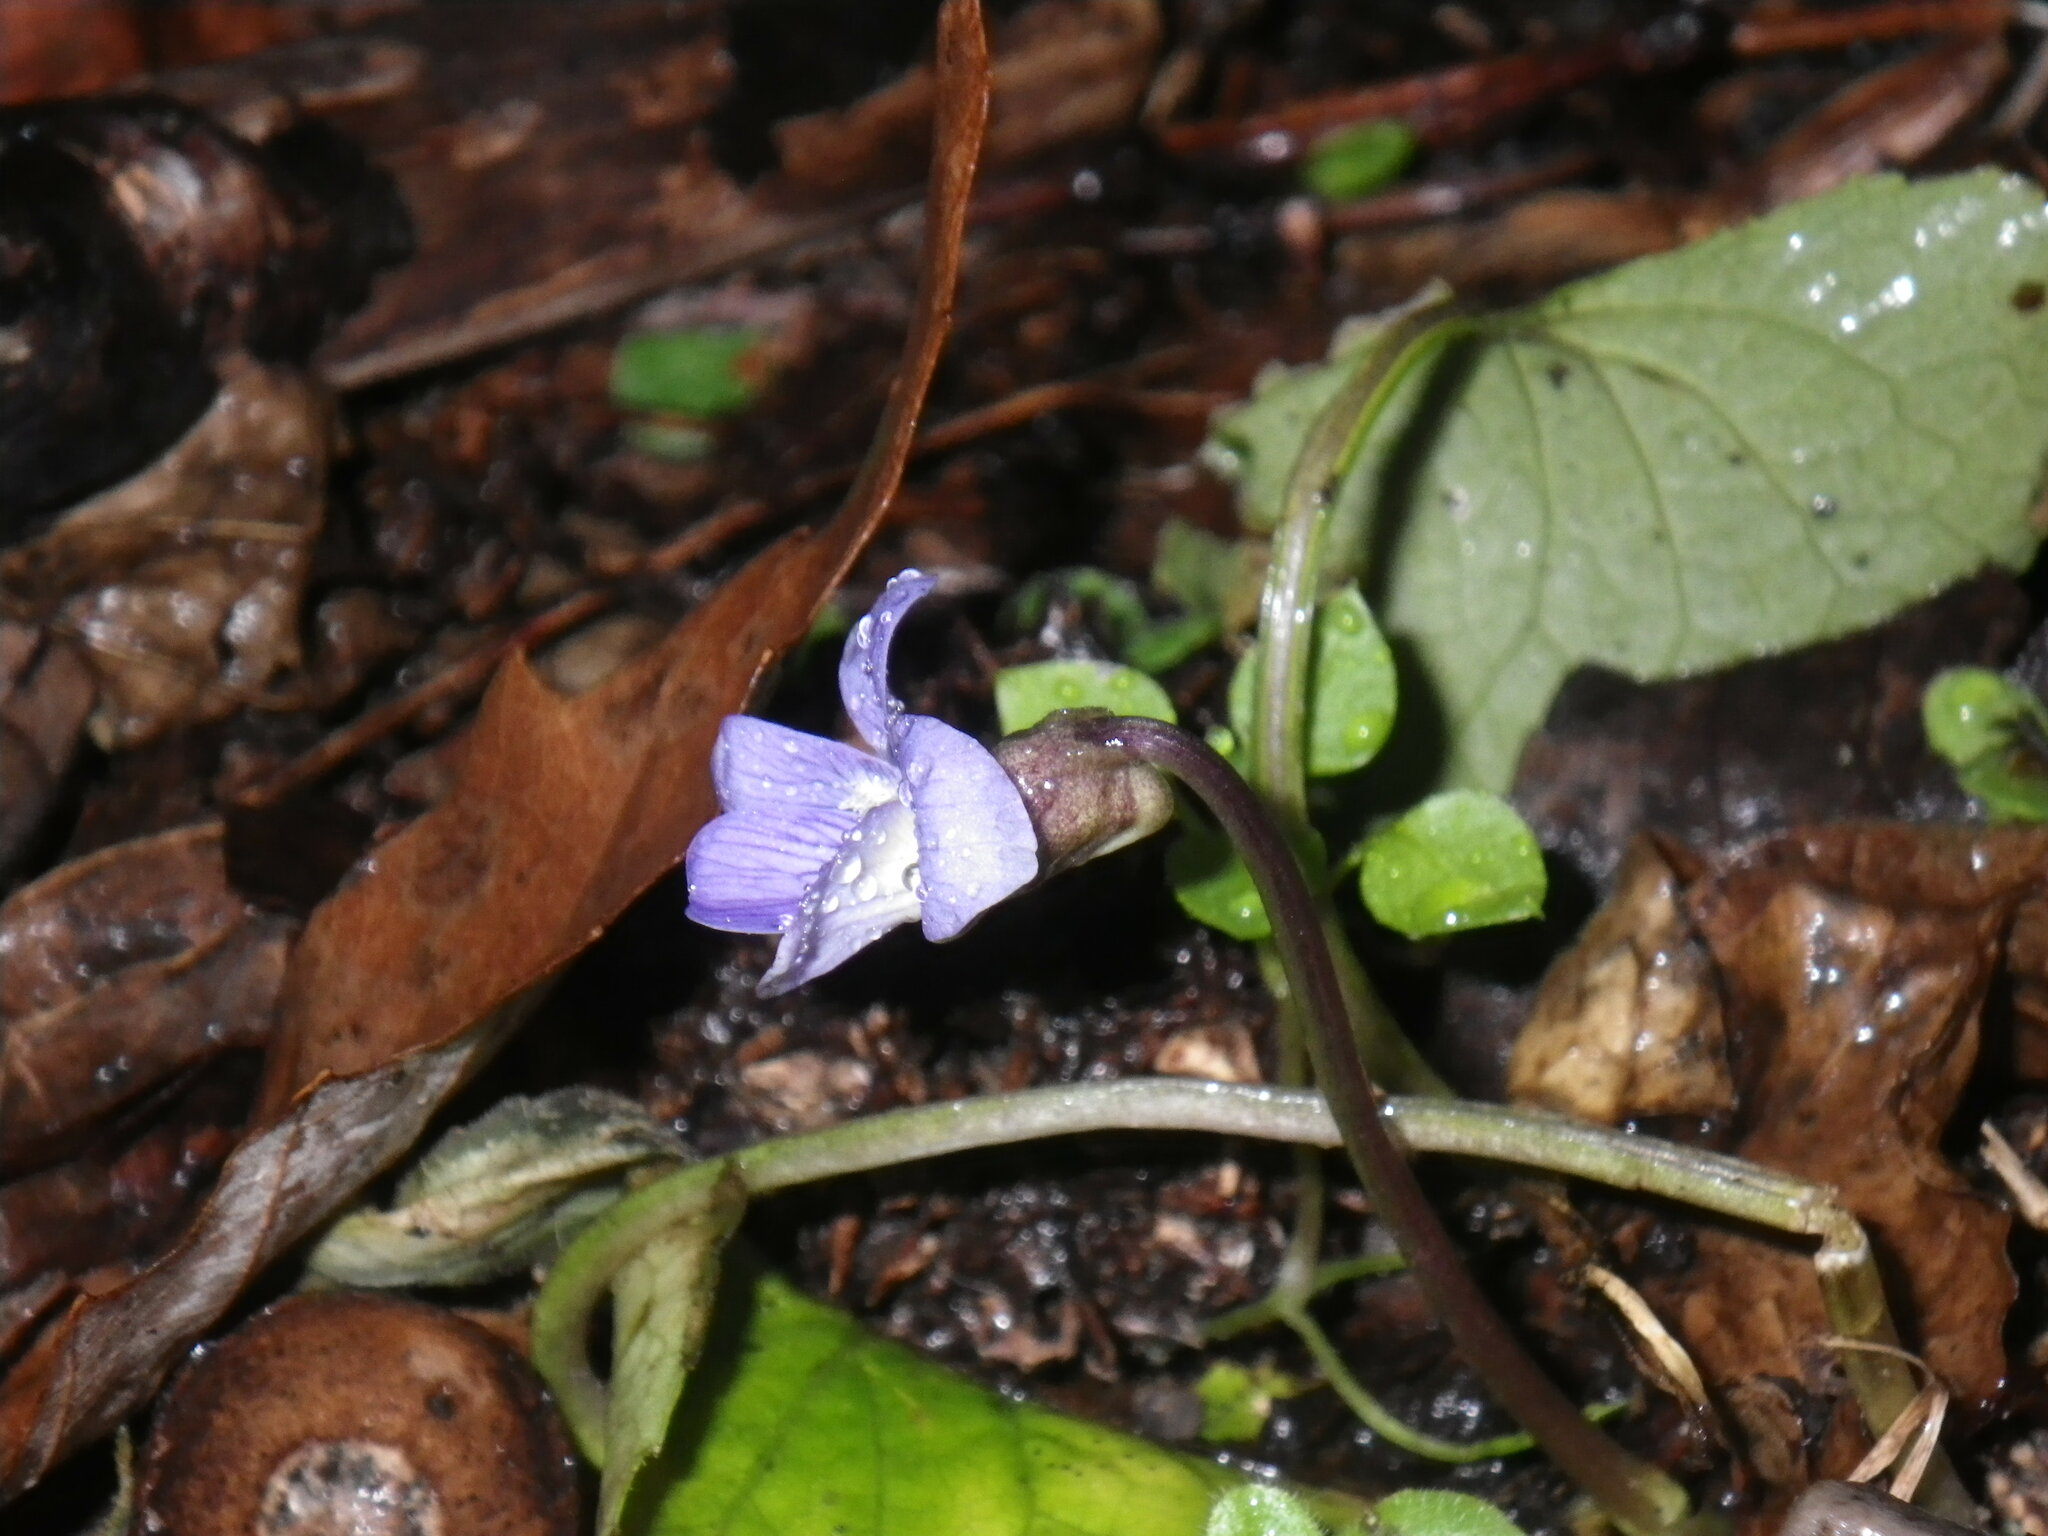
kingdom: Plantae
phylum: Tracheophyta
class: Magnoliopsida
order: Malpighiales
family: Violaceae
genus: Viola
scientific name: Viola sororia
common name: Dooryard violet
